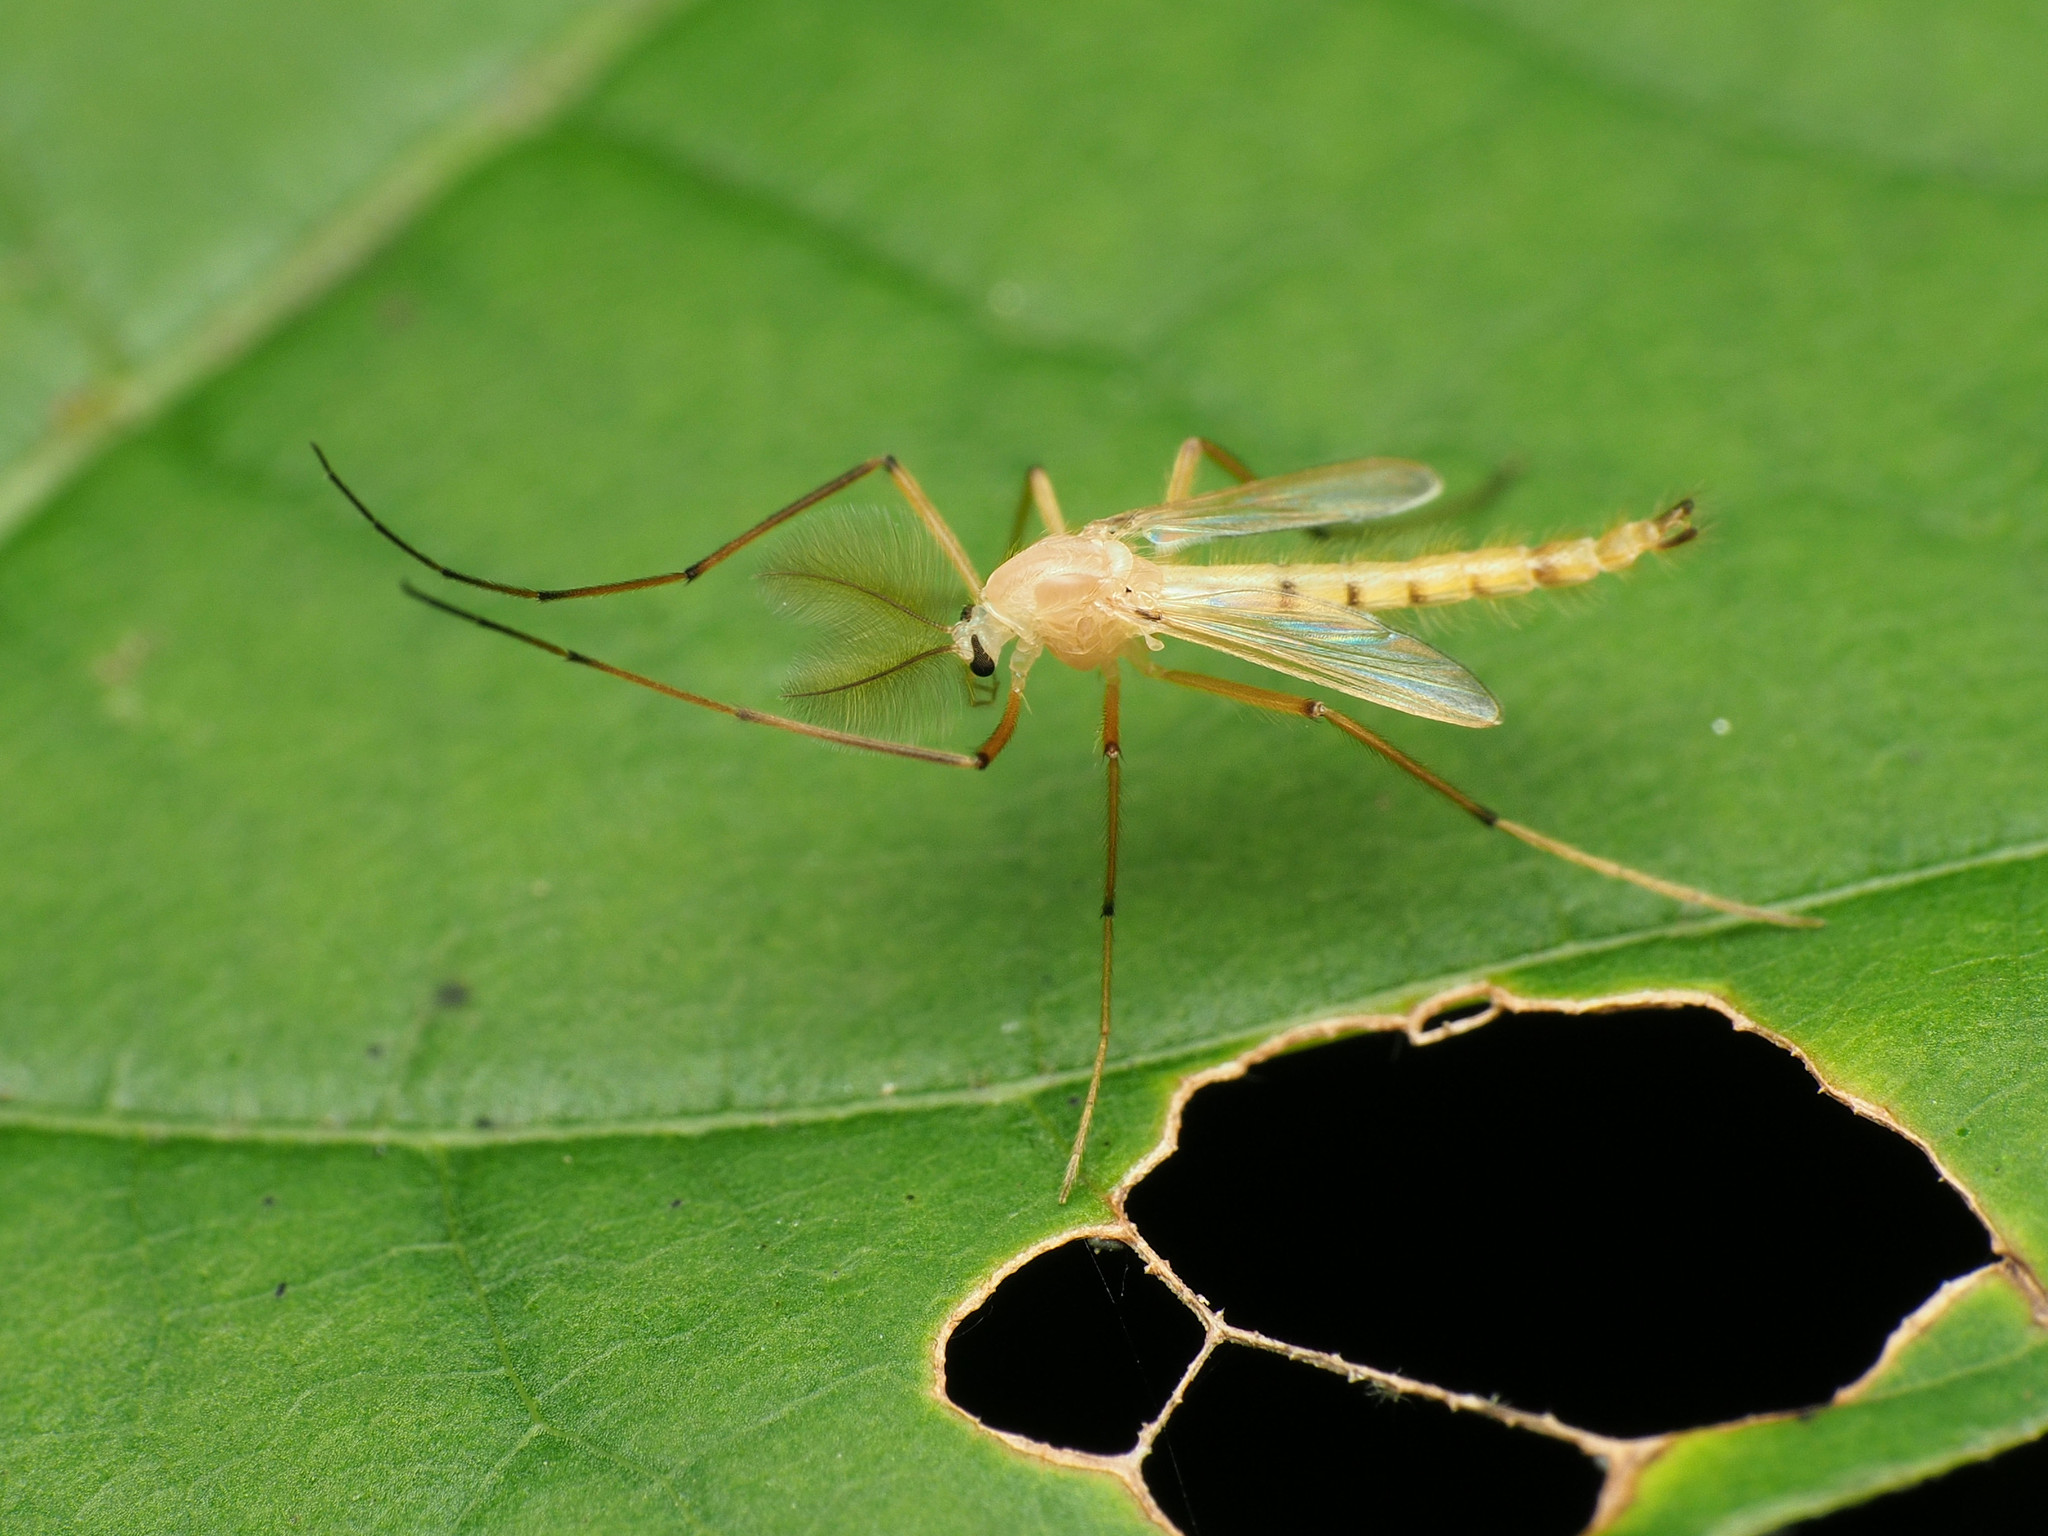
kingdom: Animalia
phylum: Arthropoda
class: Insecta
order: Diptera
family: Chironomidae
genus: Xylotopus
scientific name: Xylotopus par
